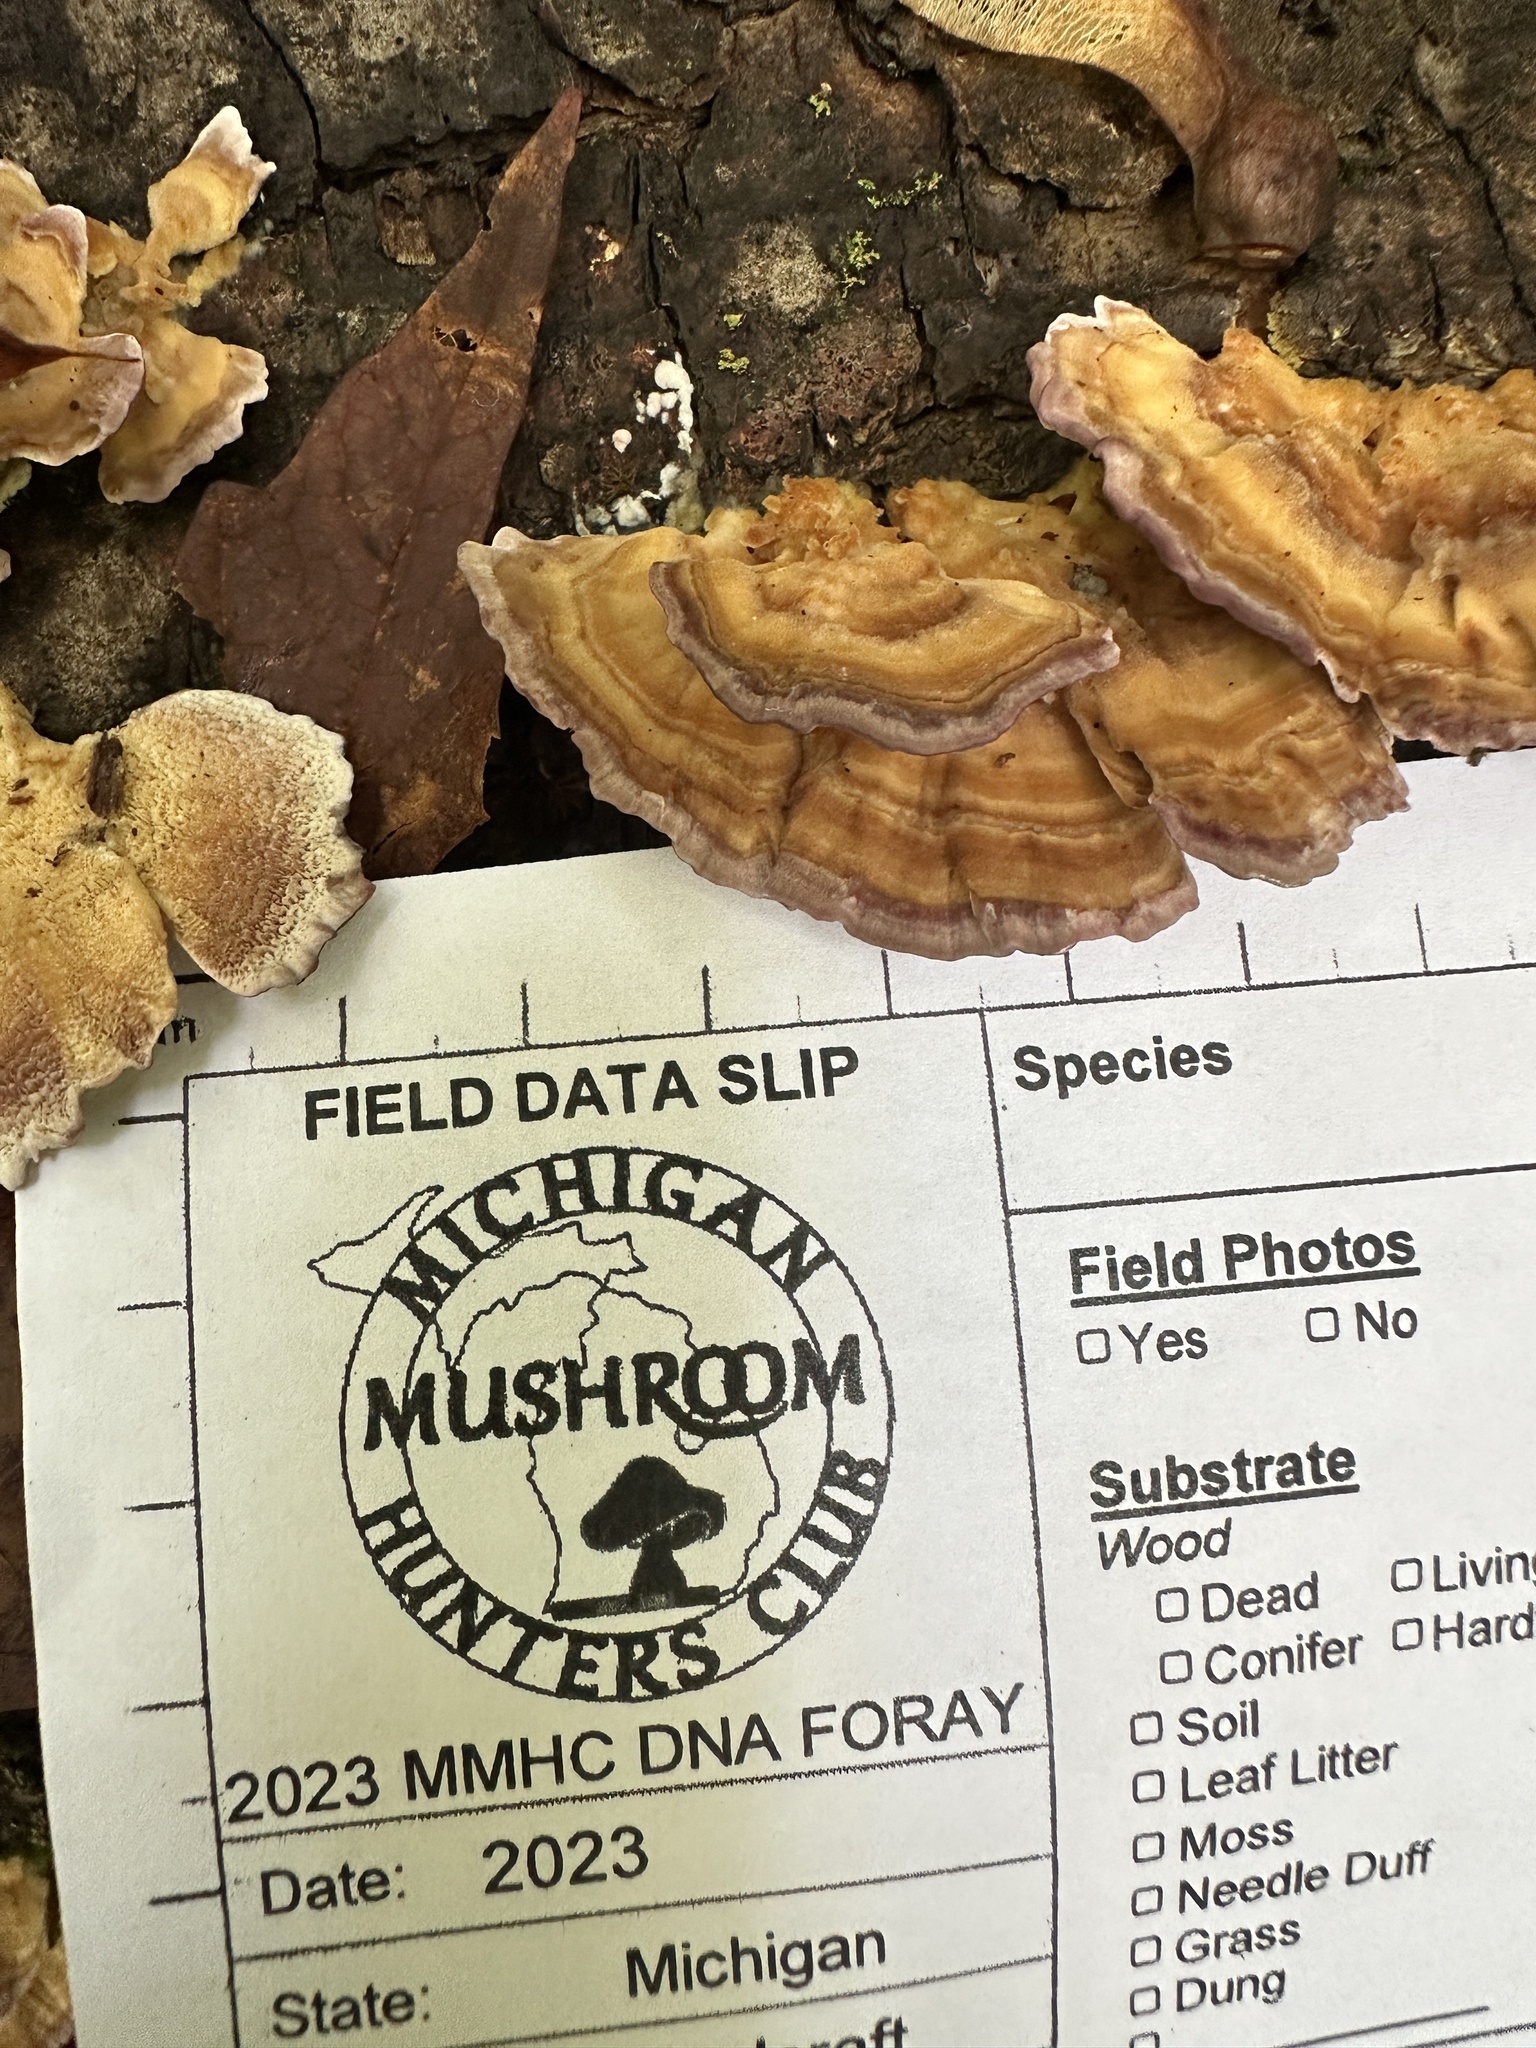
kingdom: Fungi
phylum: Basidiomycota
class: Agaricomycetes
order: Russulales
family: Stereaceae
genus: Stereum
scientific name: Stereum complicatum
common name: Crowded parchment
